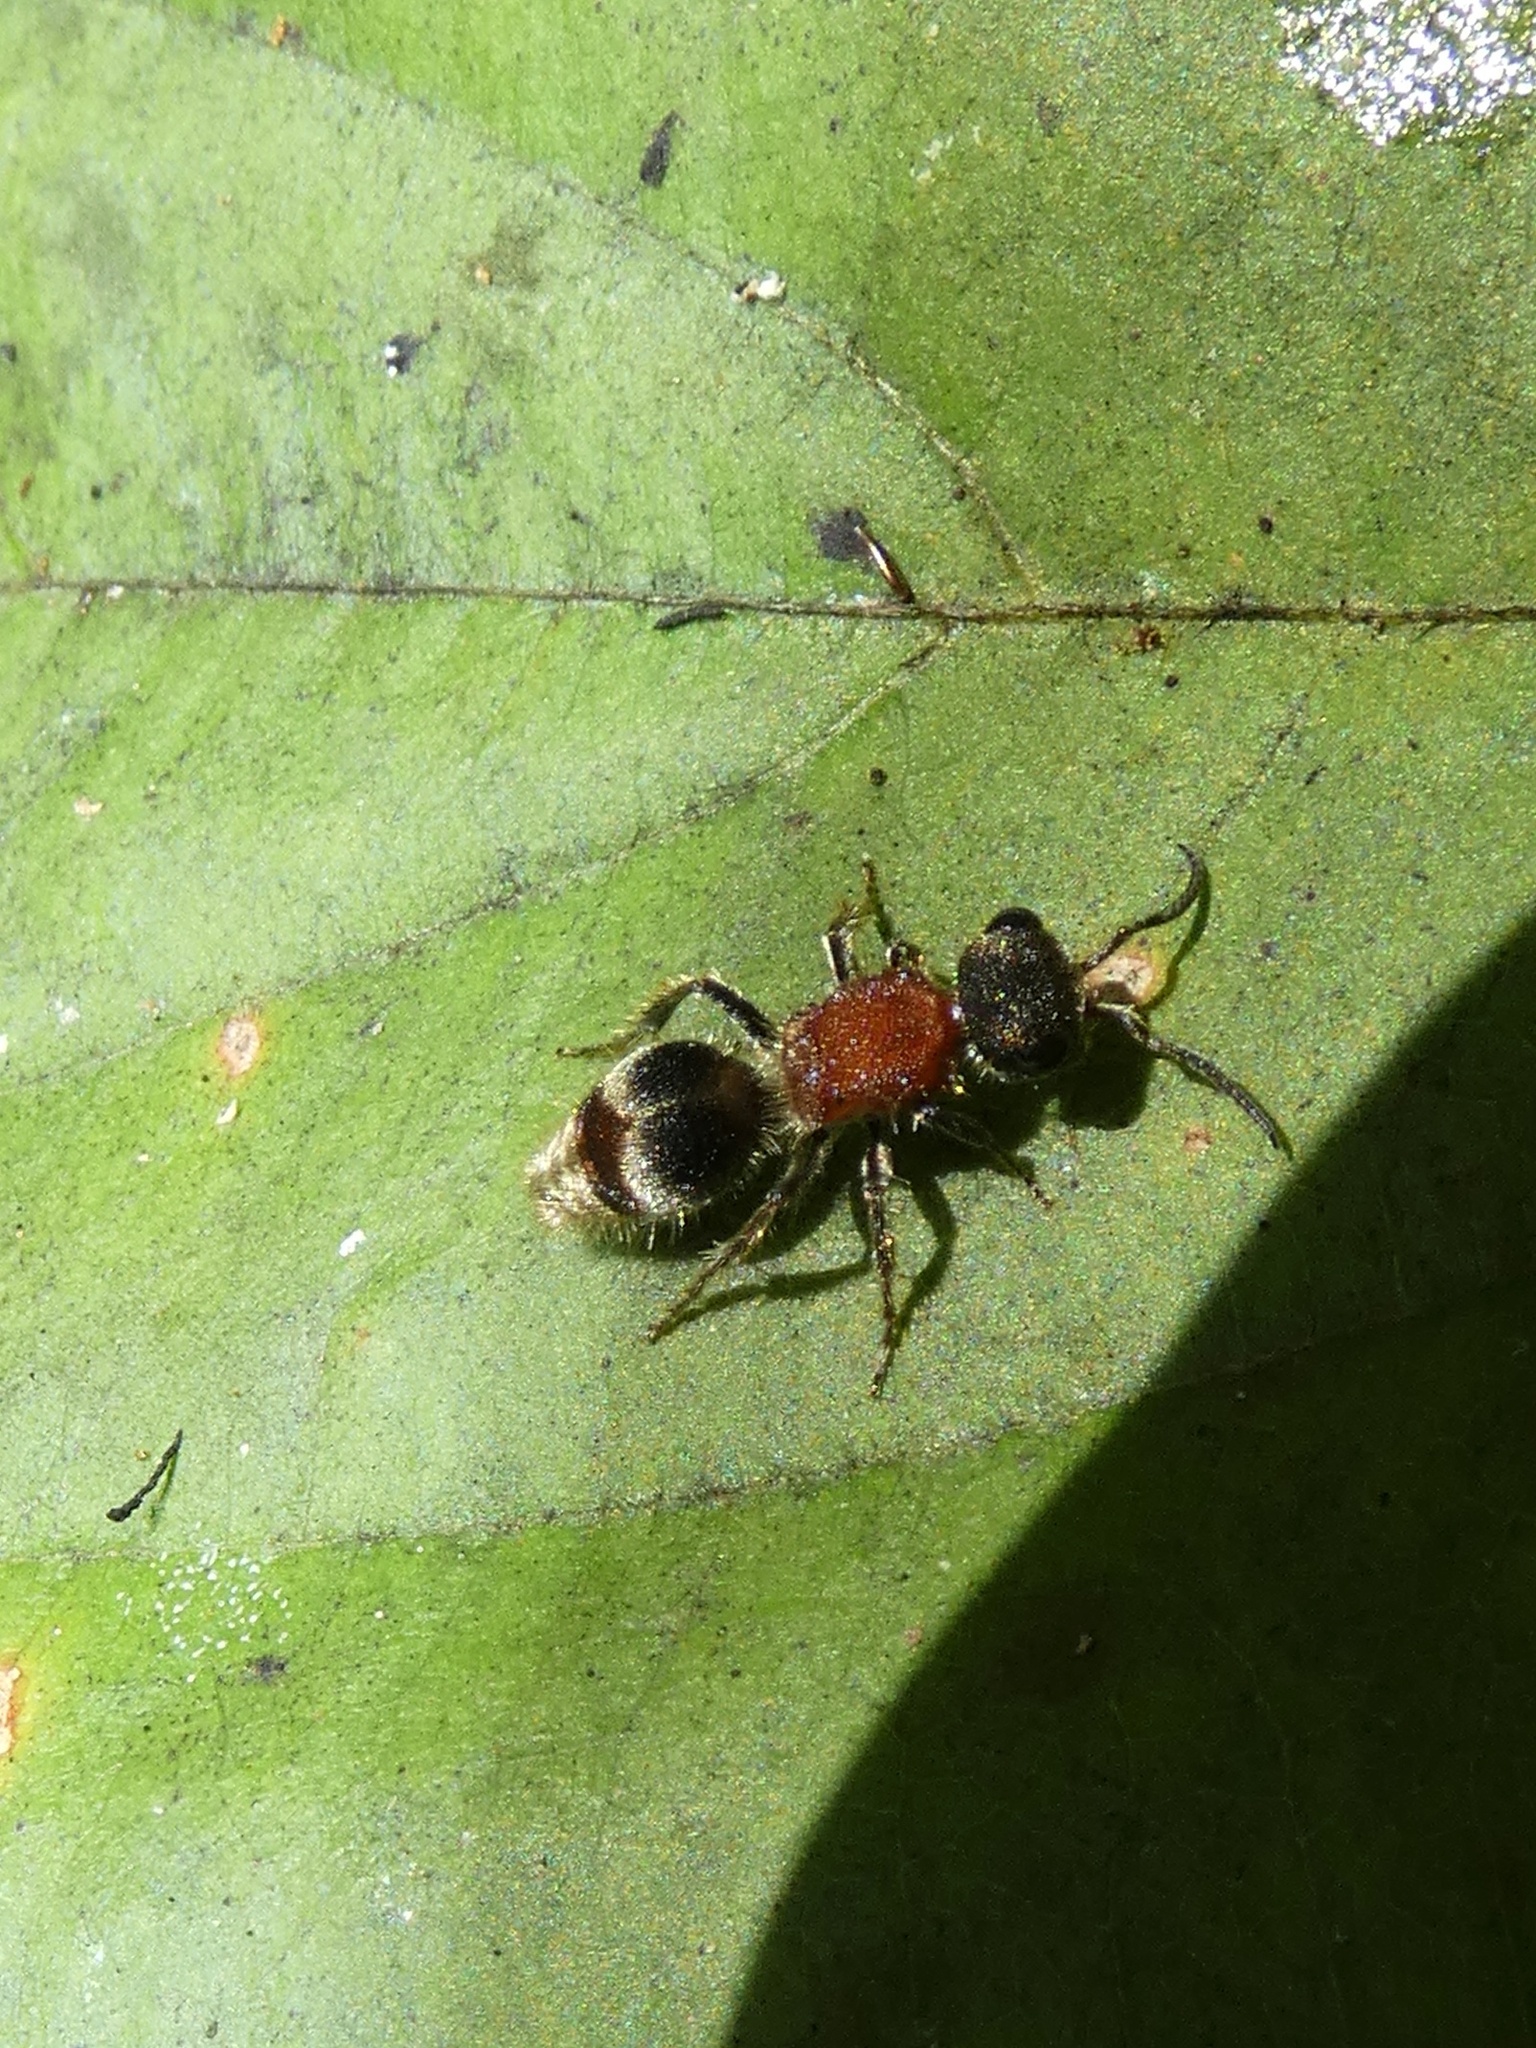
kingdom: Animalia
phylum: Arthropoda
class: Insecta
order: Hymenoptera
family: Mutillidae
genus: Pseudomethoca
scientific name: Pseudomethoca
